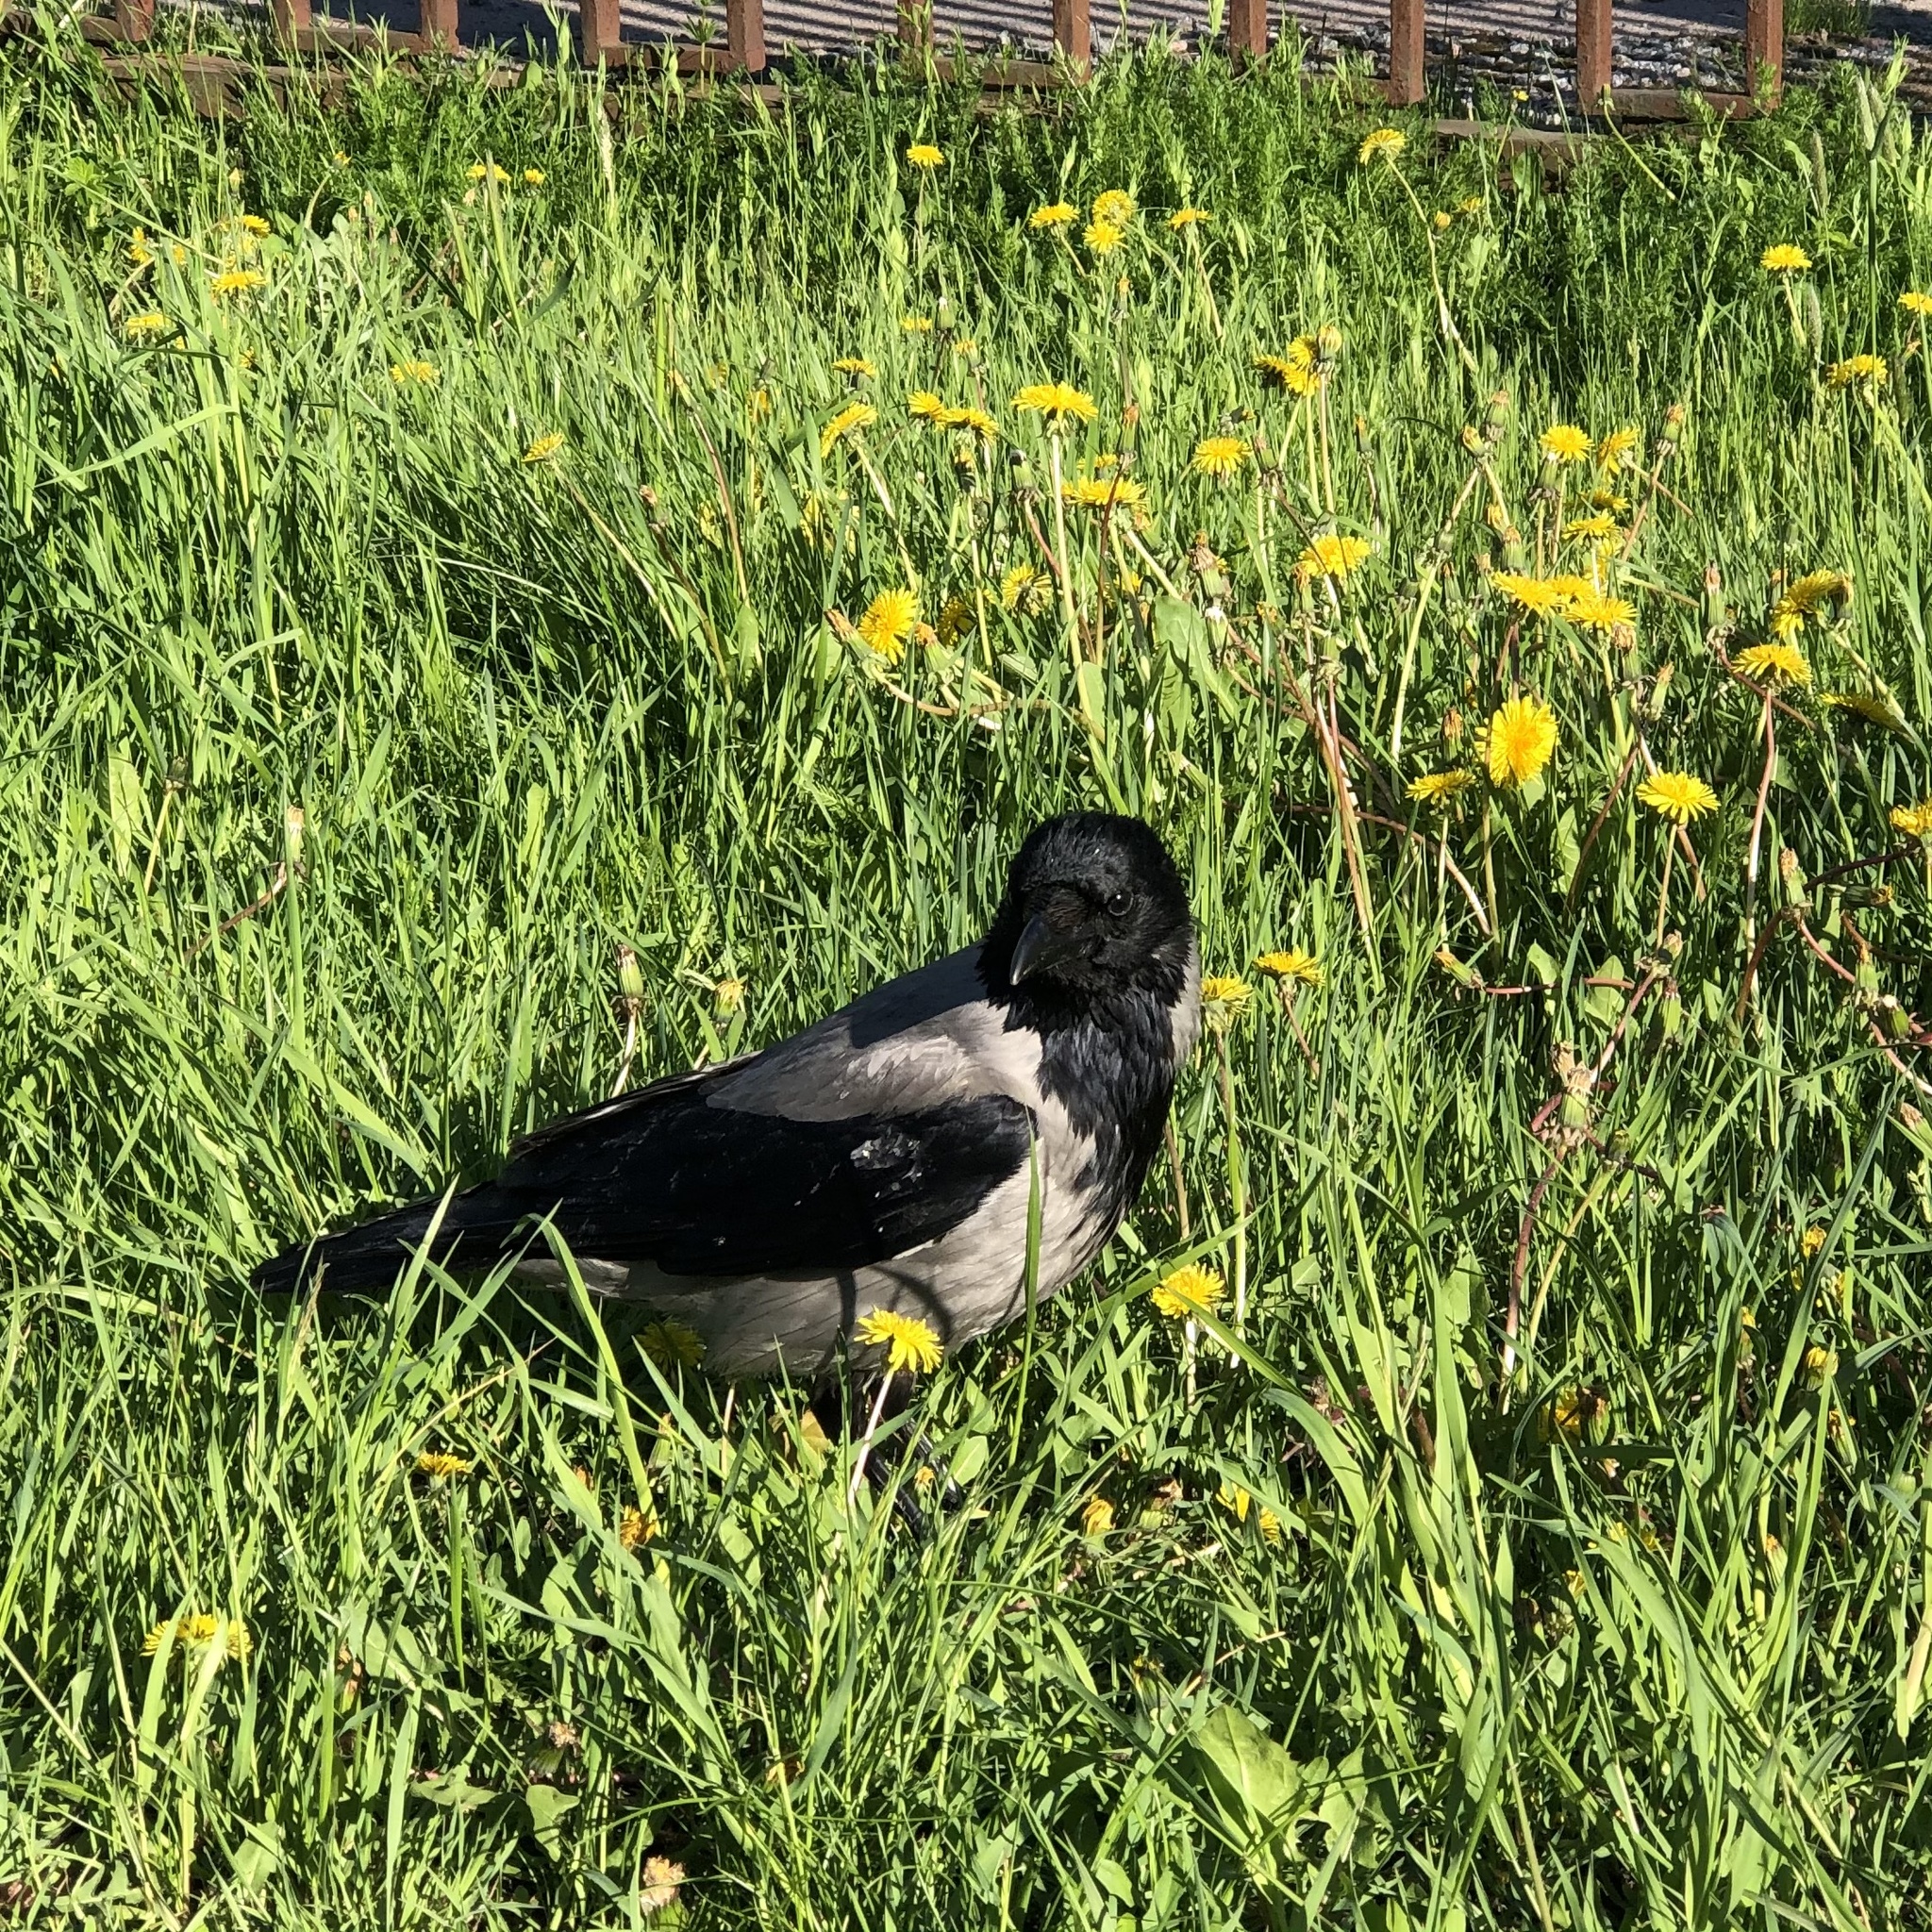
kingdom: Animalia
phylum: Chordata
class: Aves
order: Passeriformes
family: Corvidae
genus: Corvus
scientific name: Corvus cornix
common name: Hooded crow
